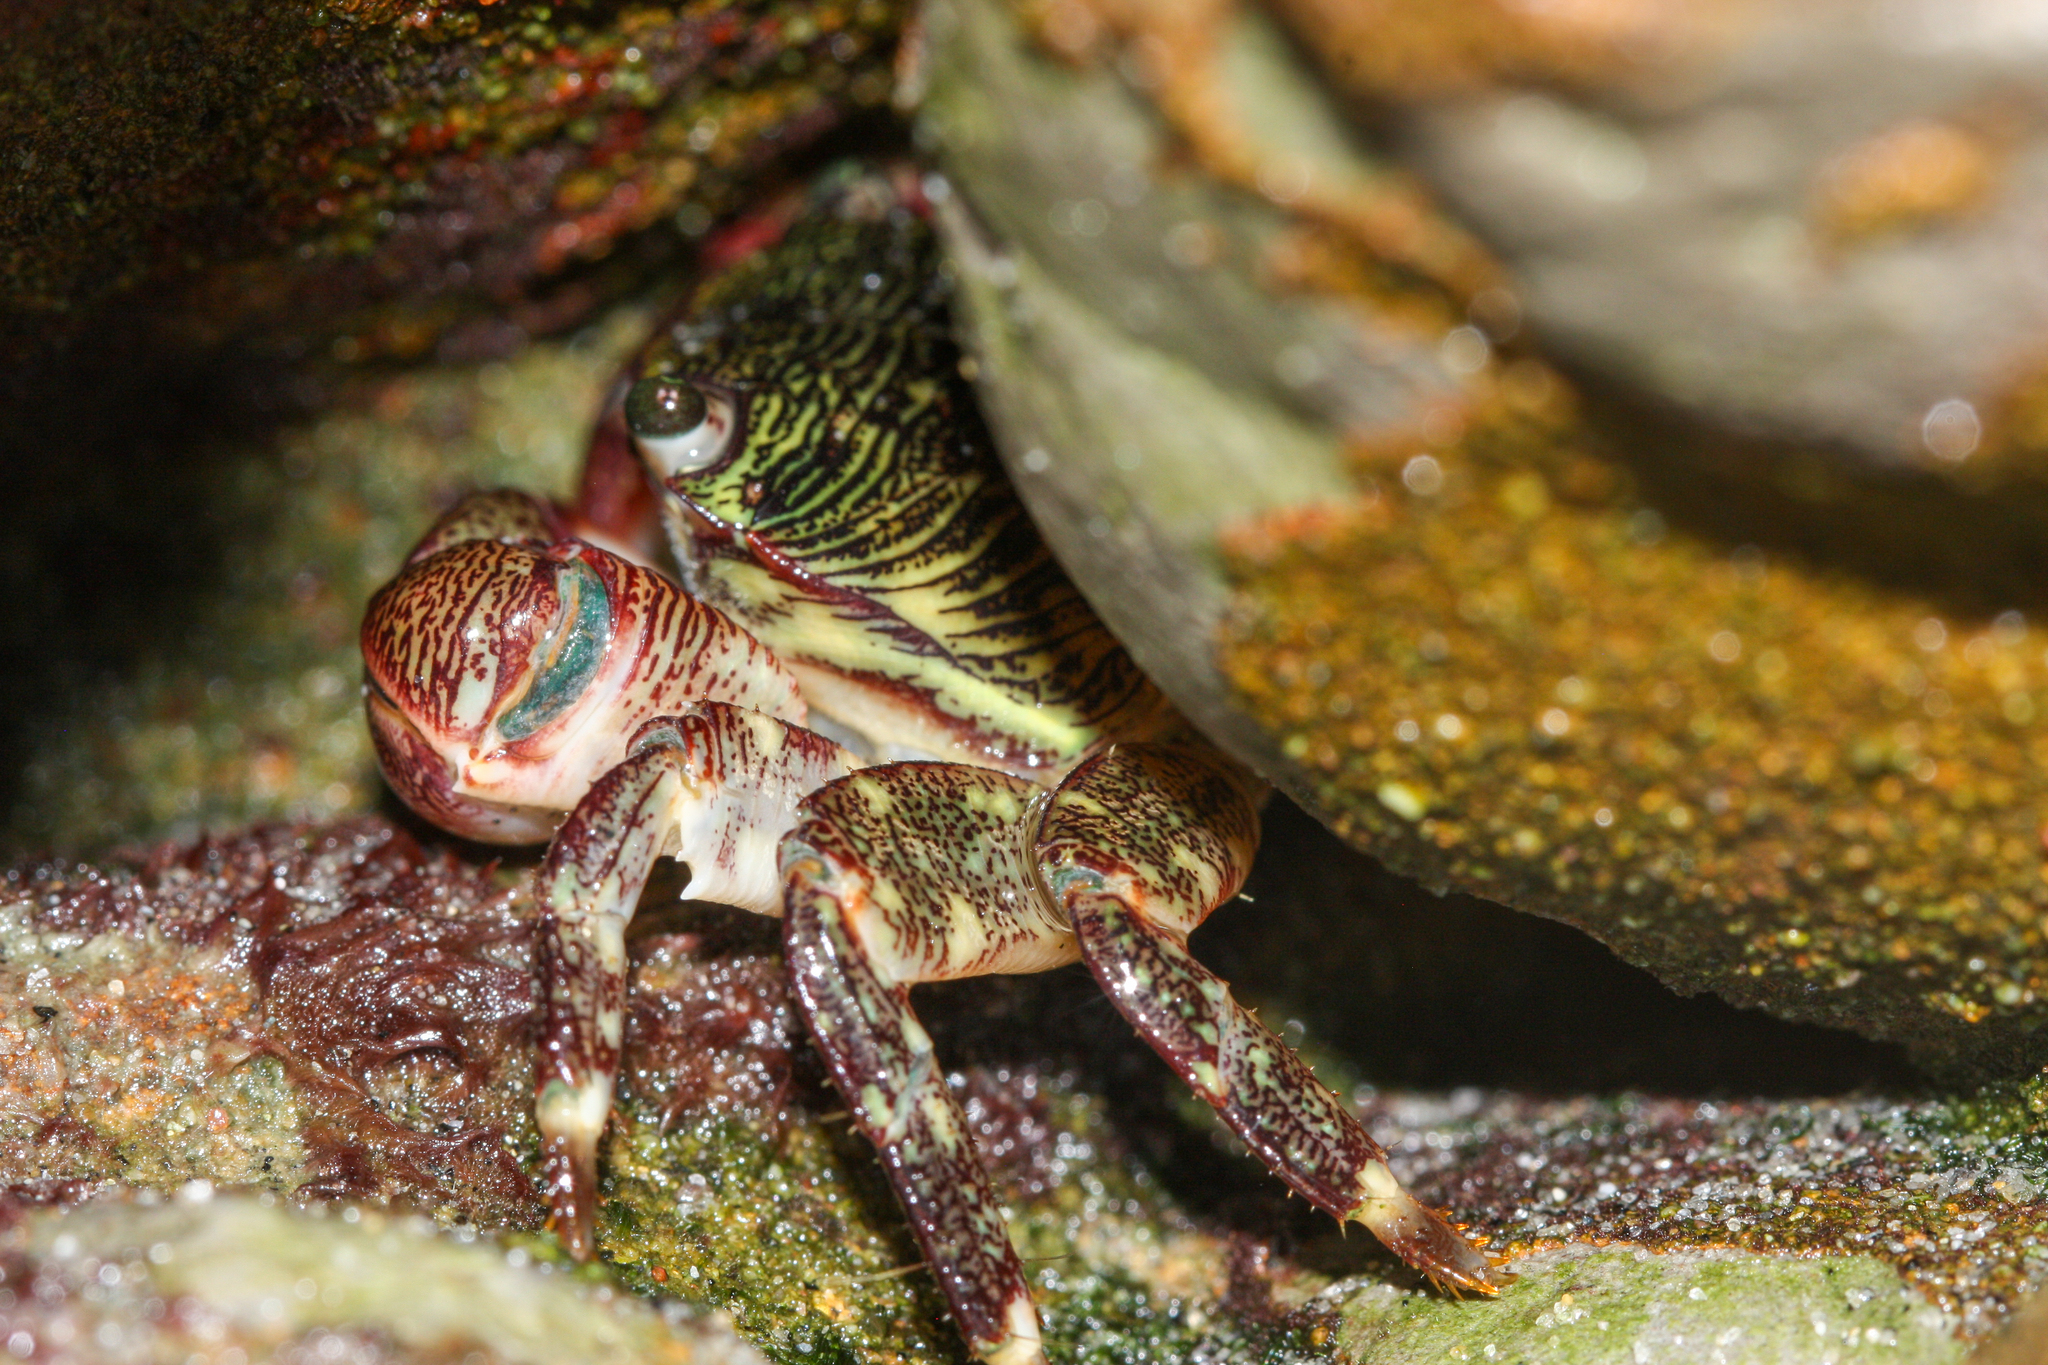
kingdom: Animalia
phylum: Arthropoda
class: Malacostraca
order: Decapoda
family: Grapsidae
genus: Pachygrapsus
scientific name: Pachygrapsus crassipes
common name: Striped shore crab
